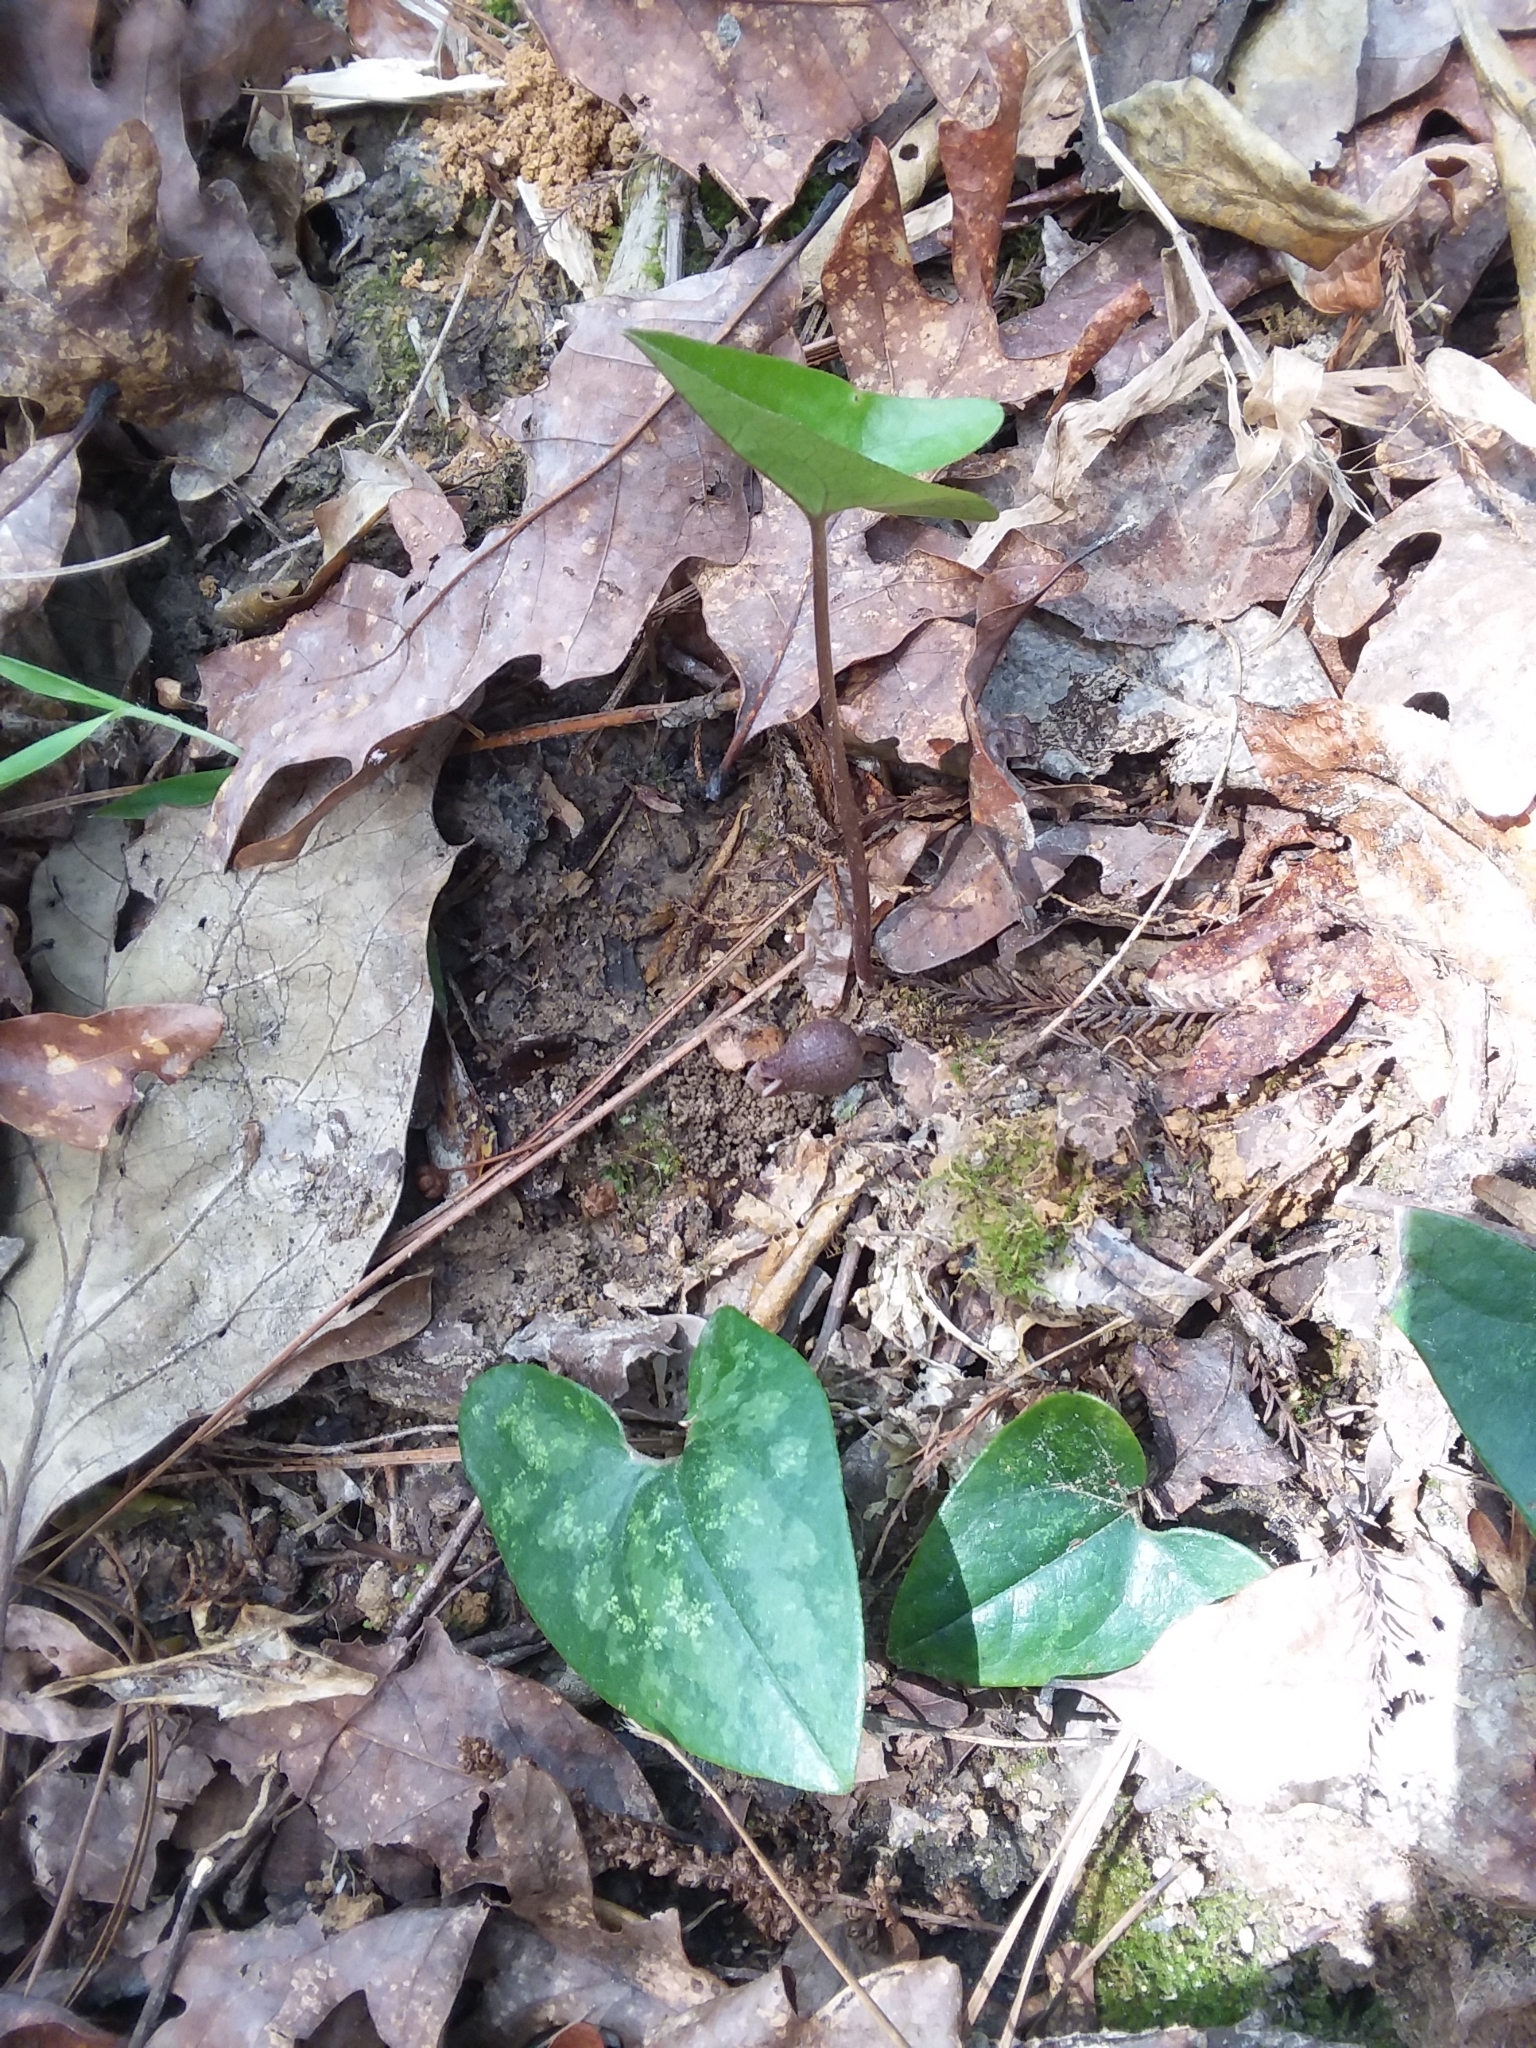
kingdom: Plantae
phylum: Tracheophyta
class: Magnoliopsida
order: Piperales
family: Aristolochiaceae
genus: Hexastylis
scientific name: Hexastylis arifolia
